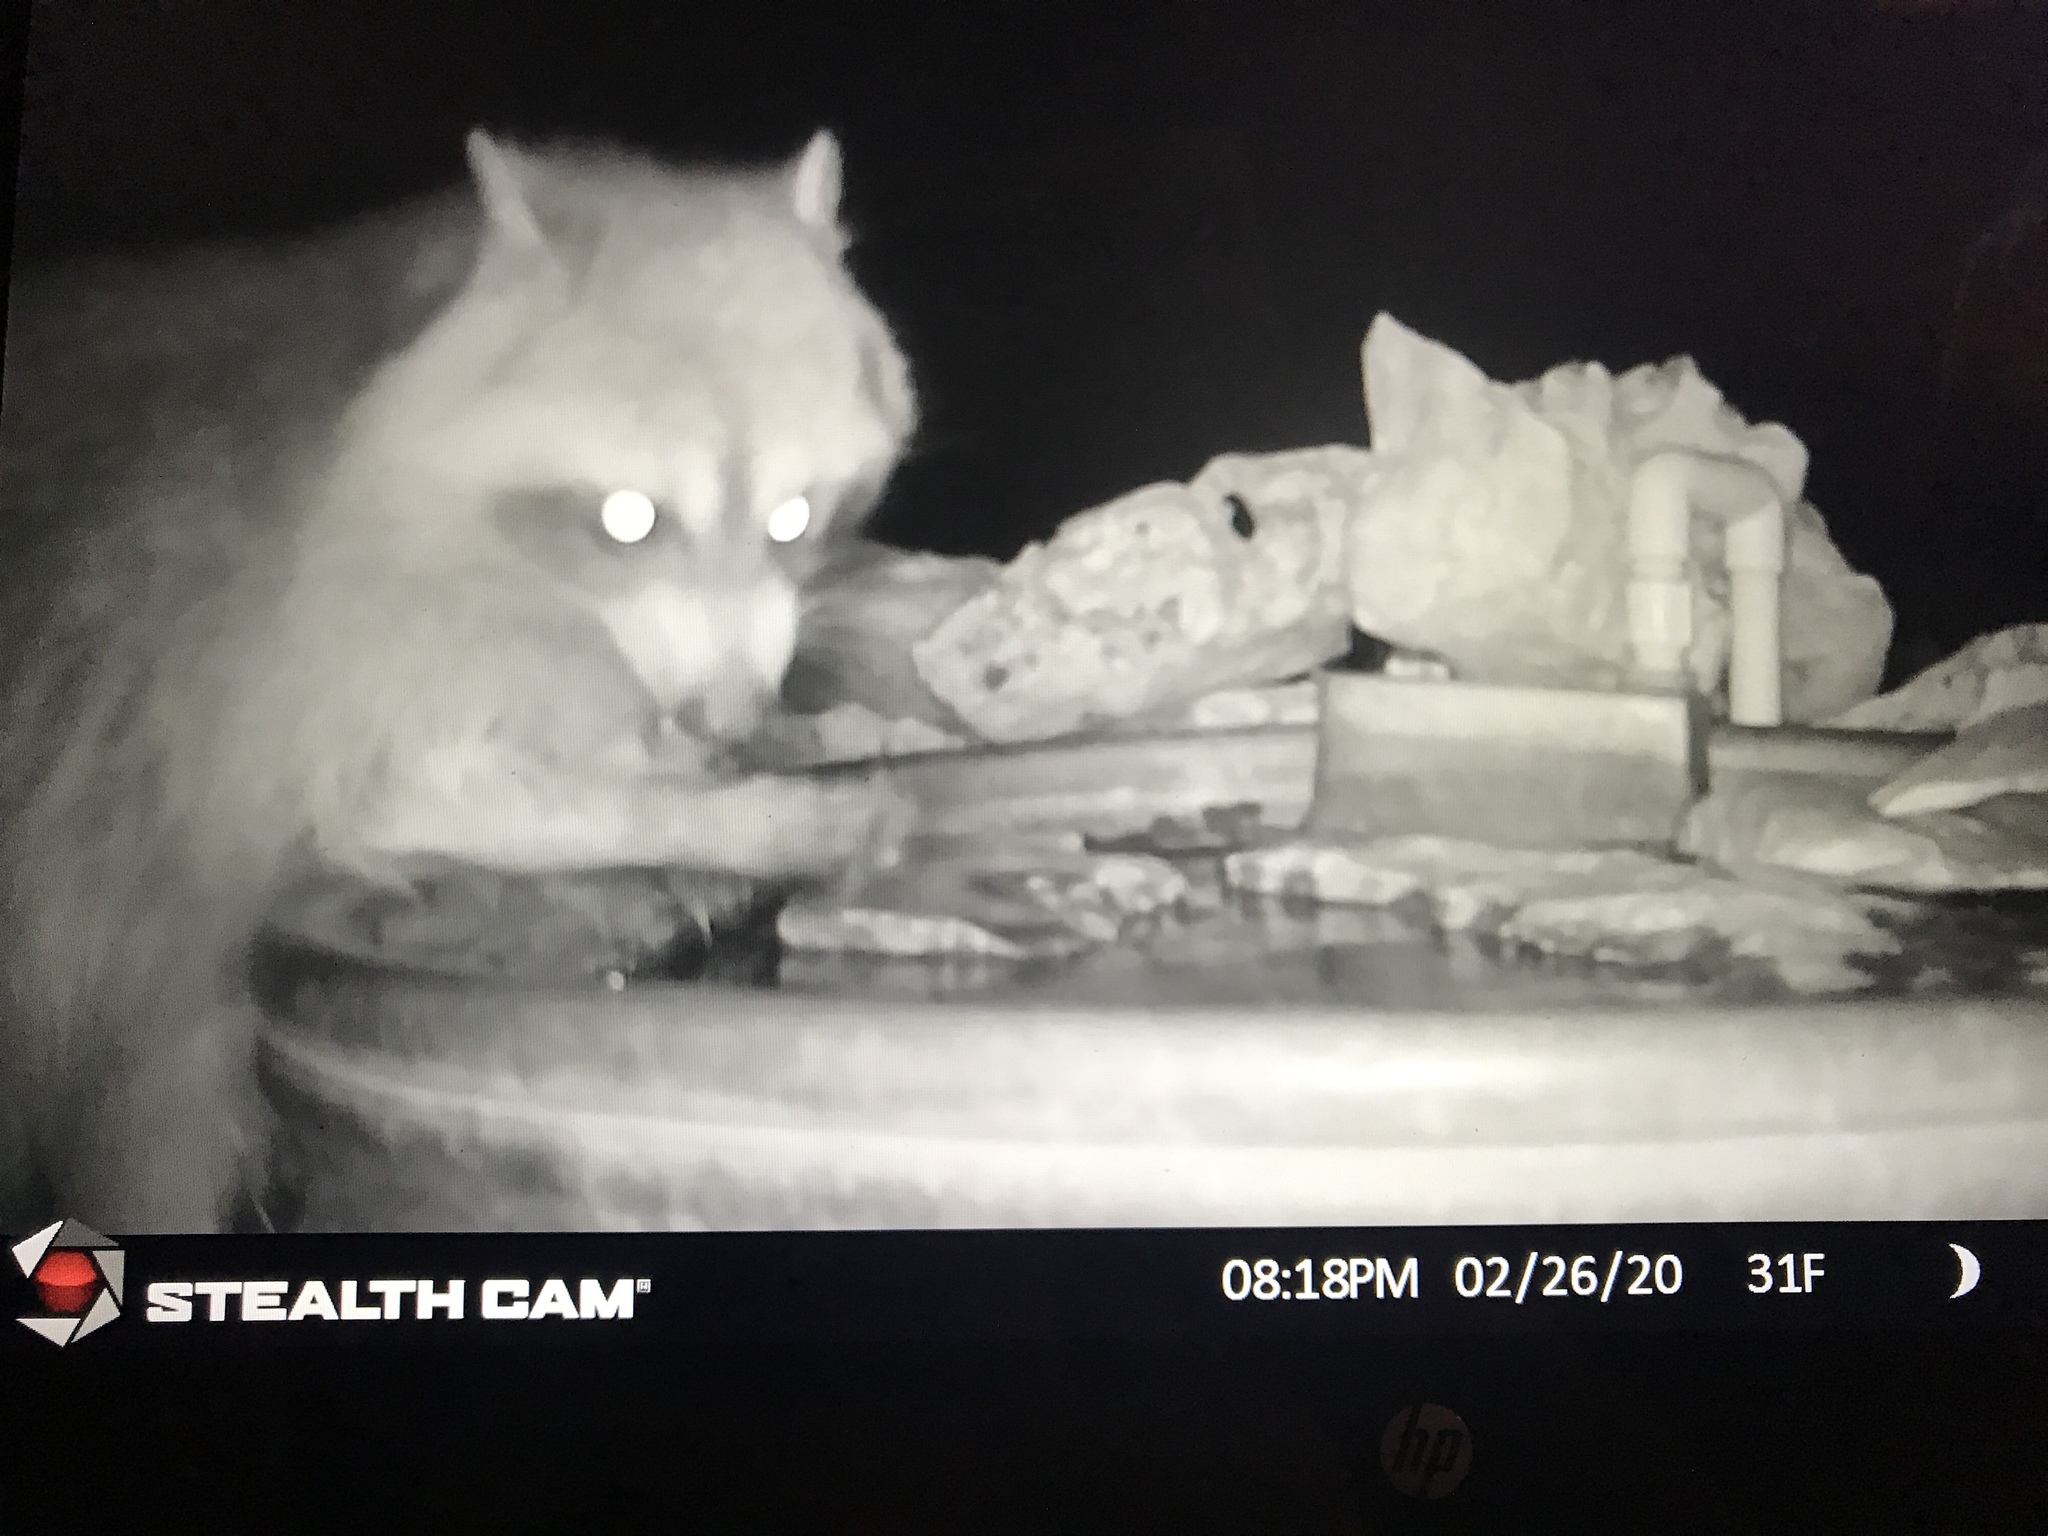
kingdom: Animalia
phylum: Chordata
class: Mammalia
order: Carnivora
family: Procyonidae
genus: Procyon
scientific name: Procyon lotor
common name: Raccoon
